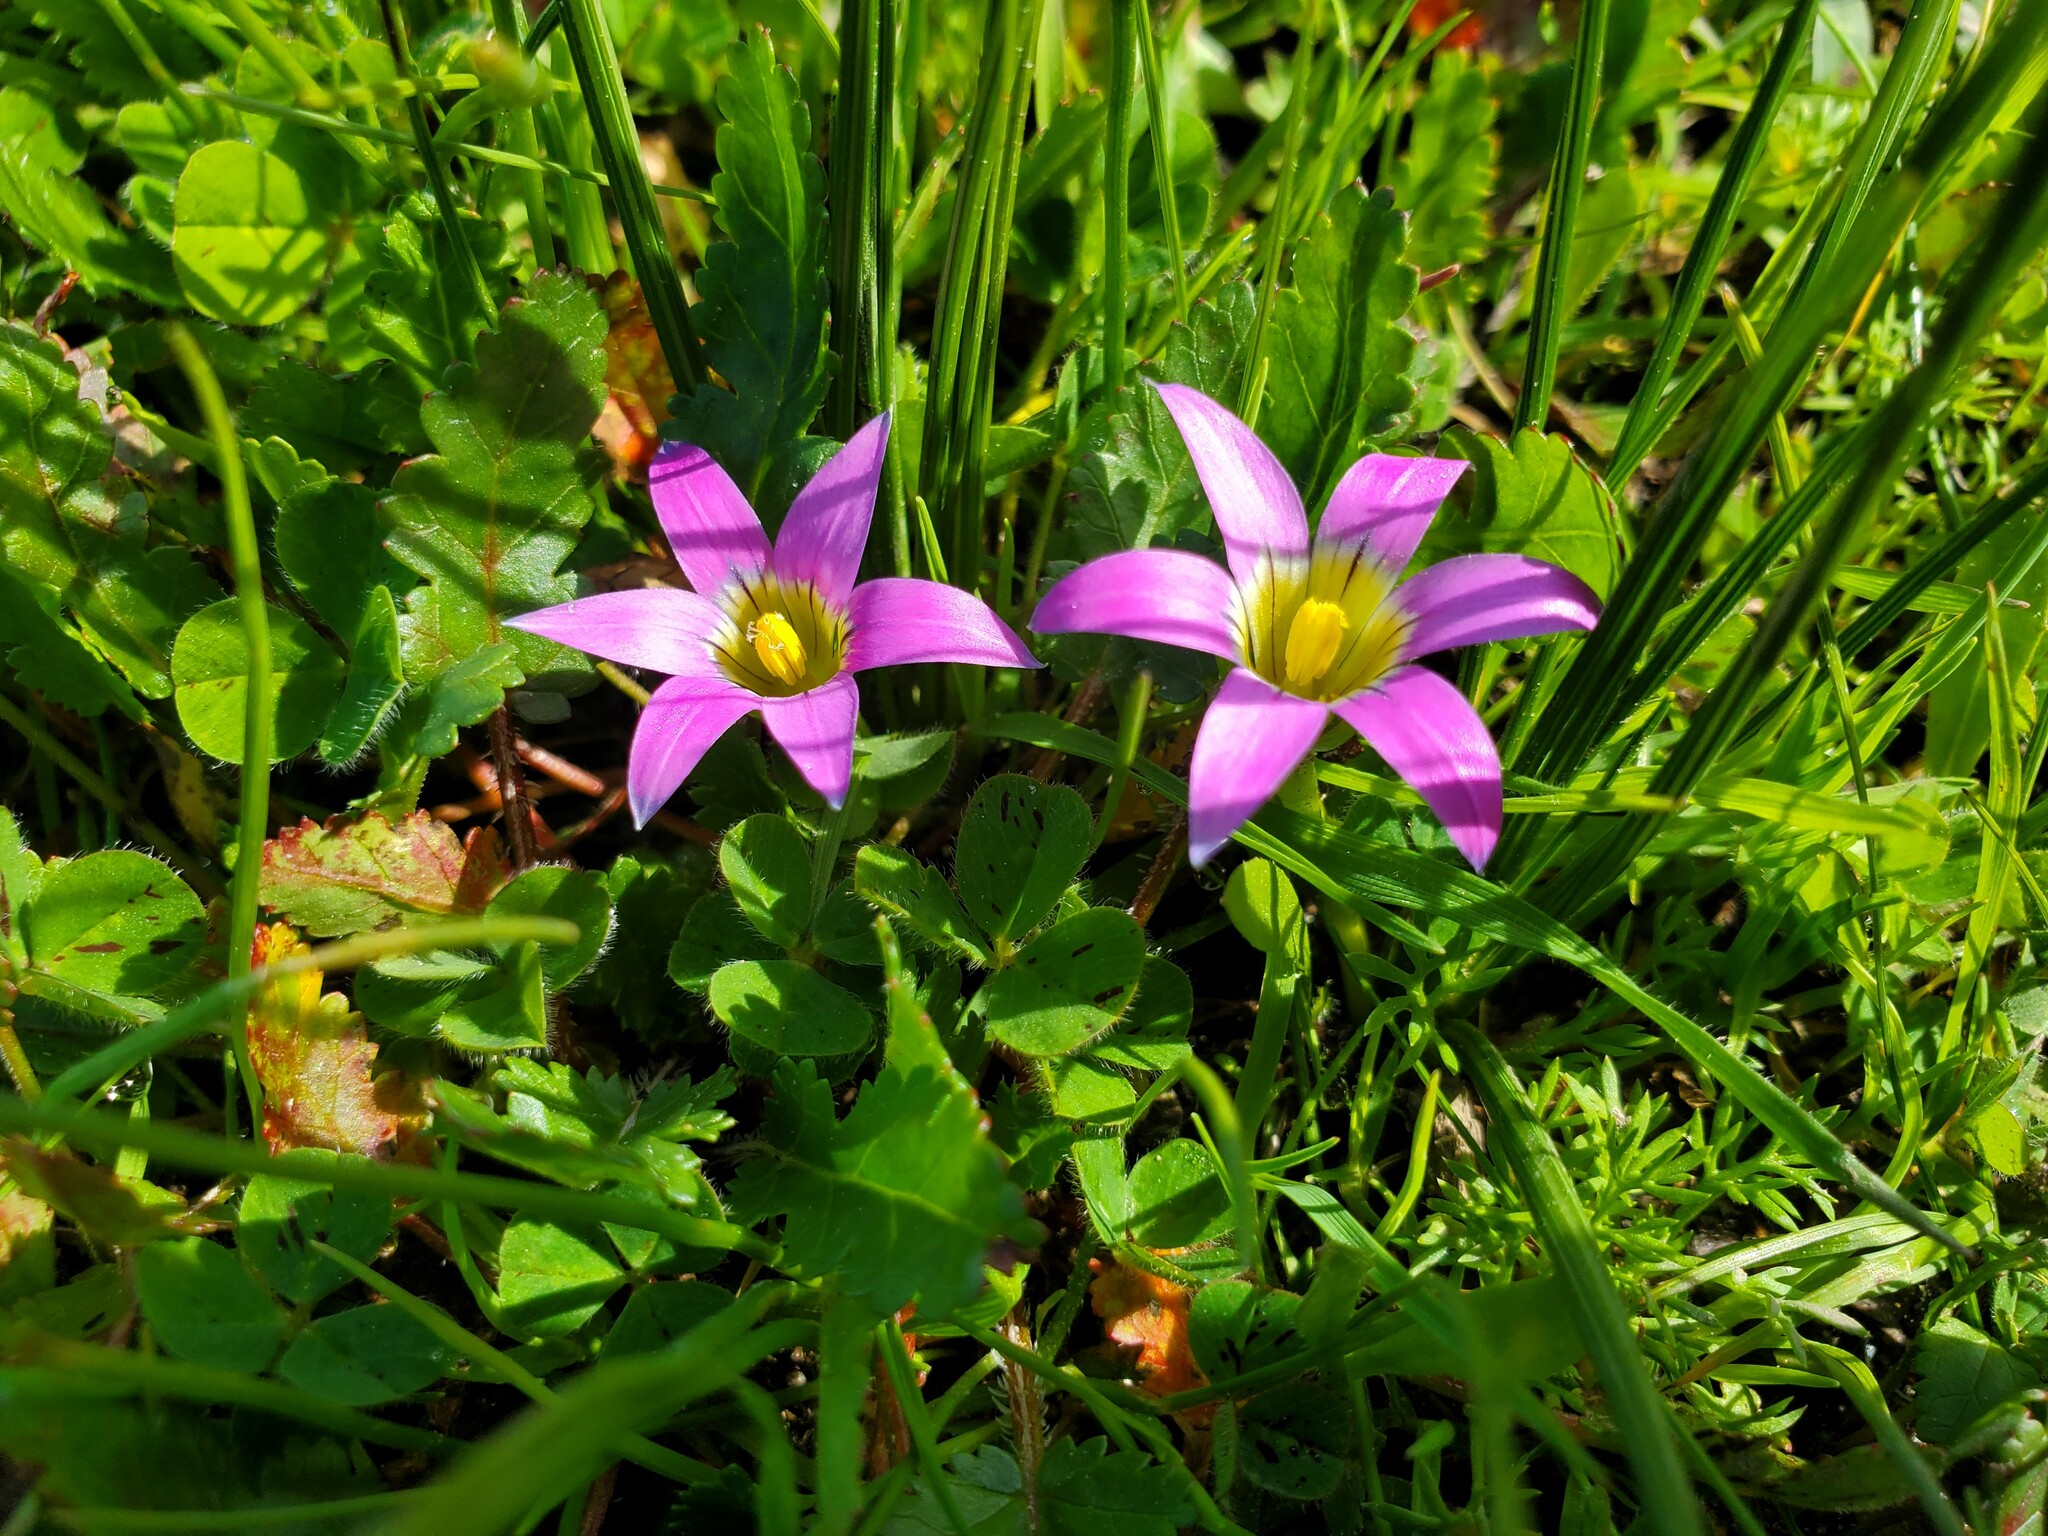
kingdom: Plantae
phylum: Tracheophyta
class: Liliopsida
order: Asparagales
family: Iridaceae
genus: Romulea
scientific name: Romulea rosea
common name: Oniongrass
